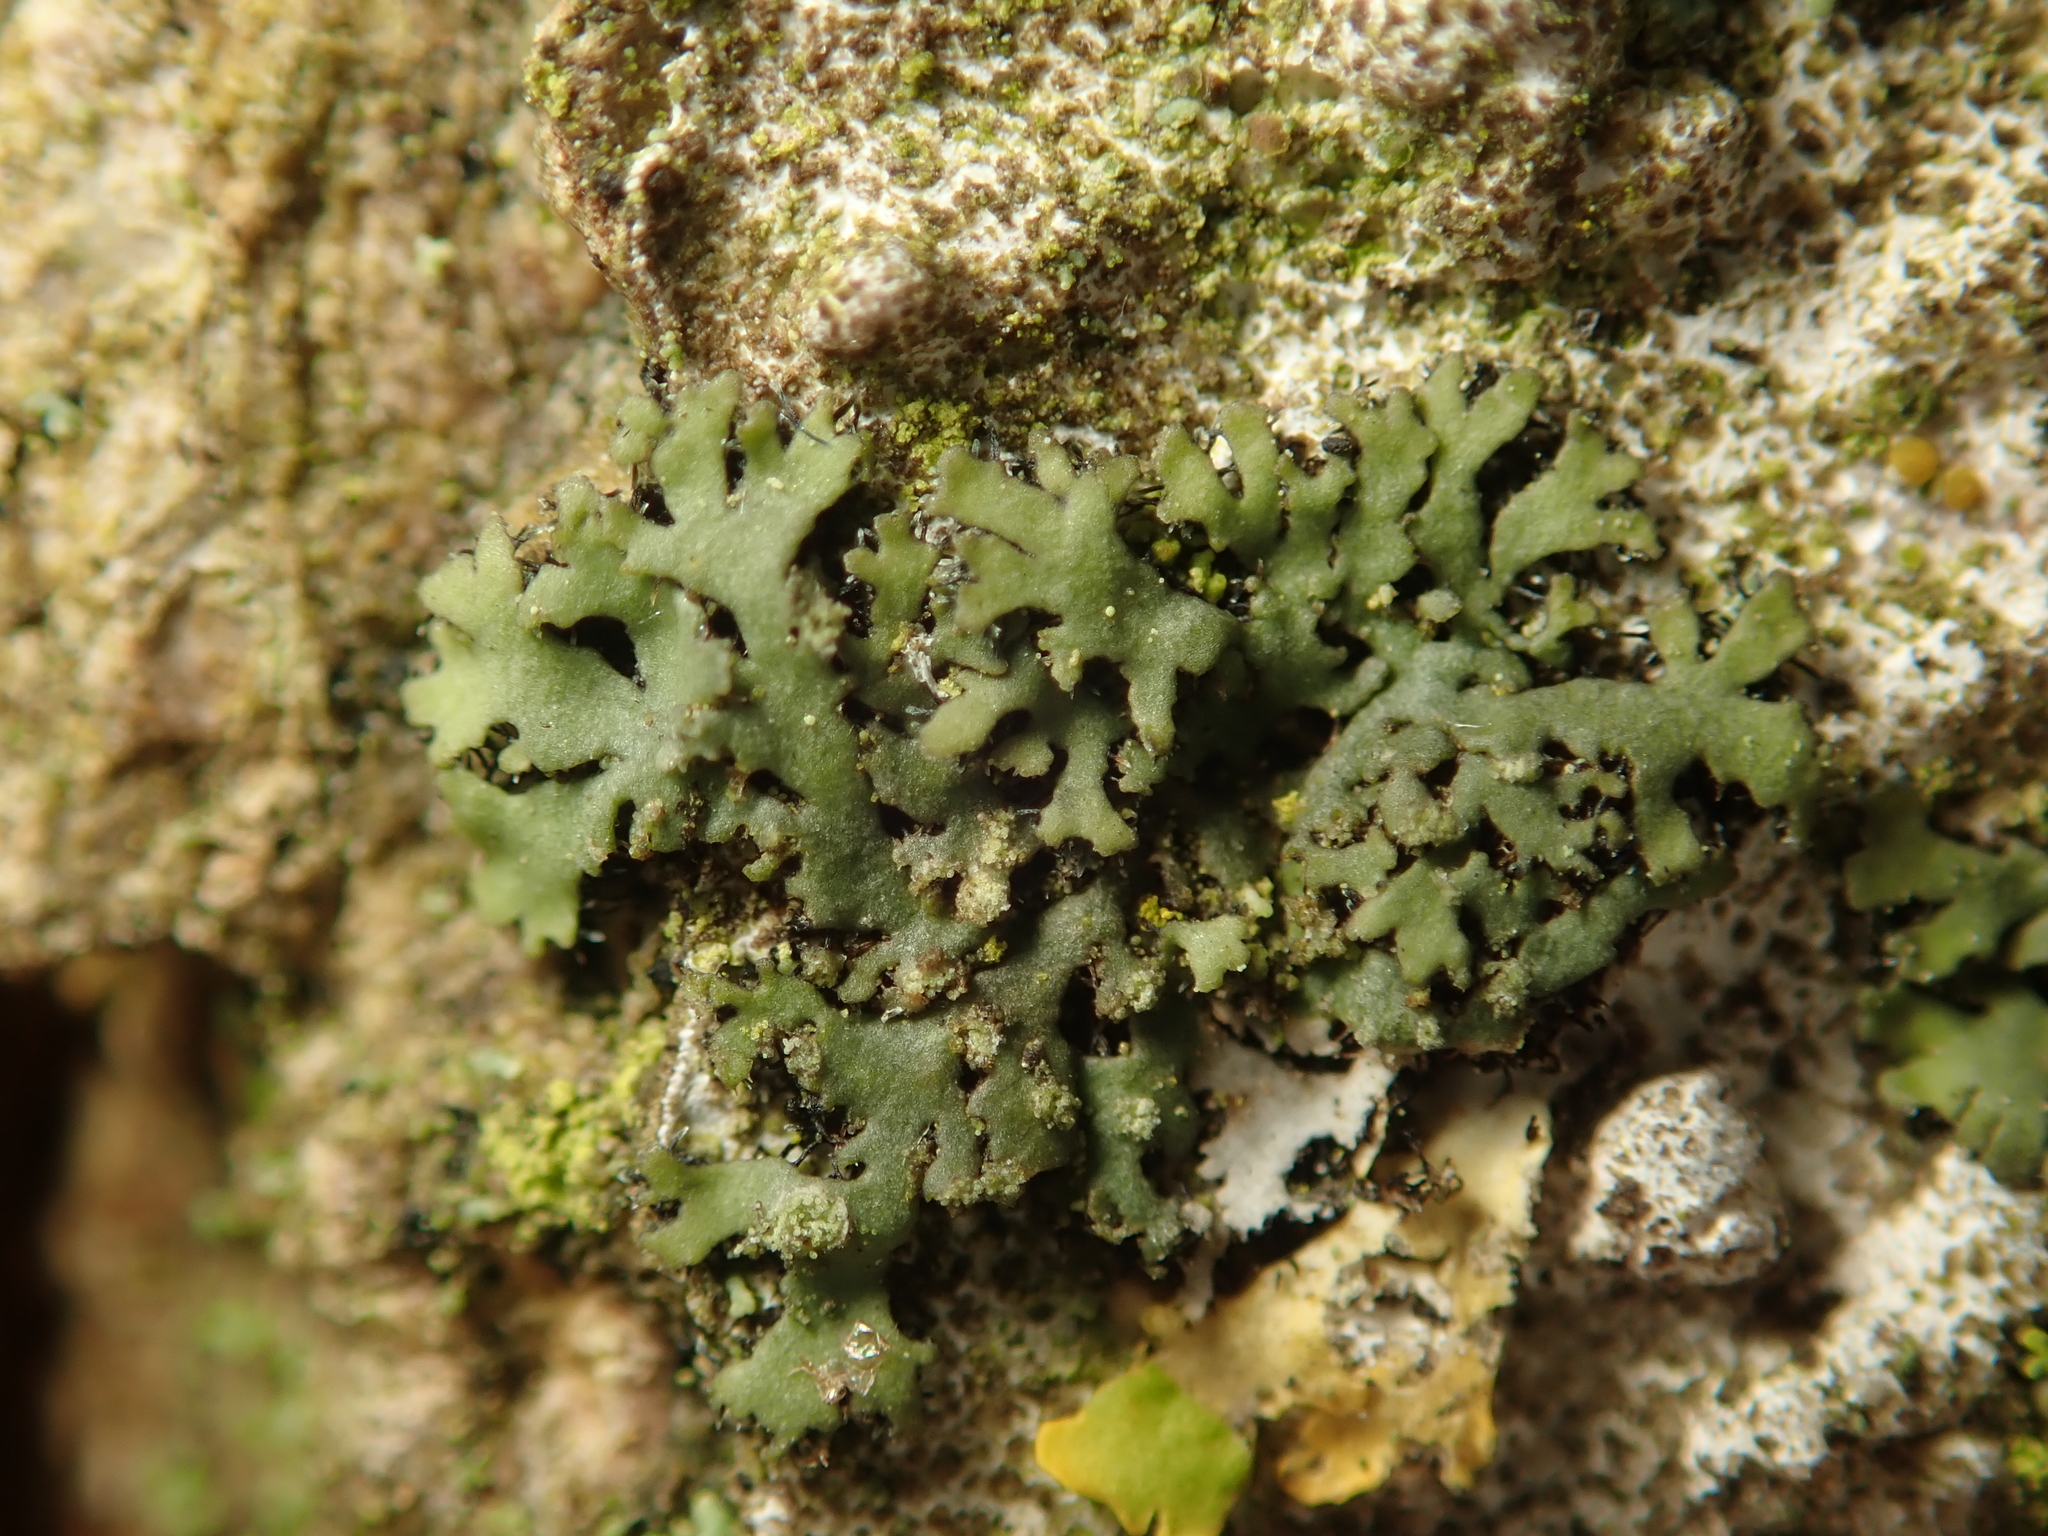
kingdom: Fungi
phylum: Ascomycota
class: Lecanoromycetes
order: Caliciales
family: Physciaceae
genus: Phaeophyscia
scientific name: Phaeophyscia orbicularis
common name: Mealy shadow lichen
